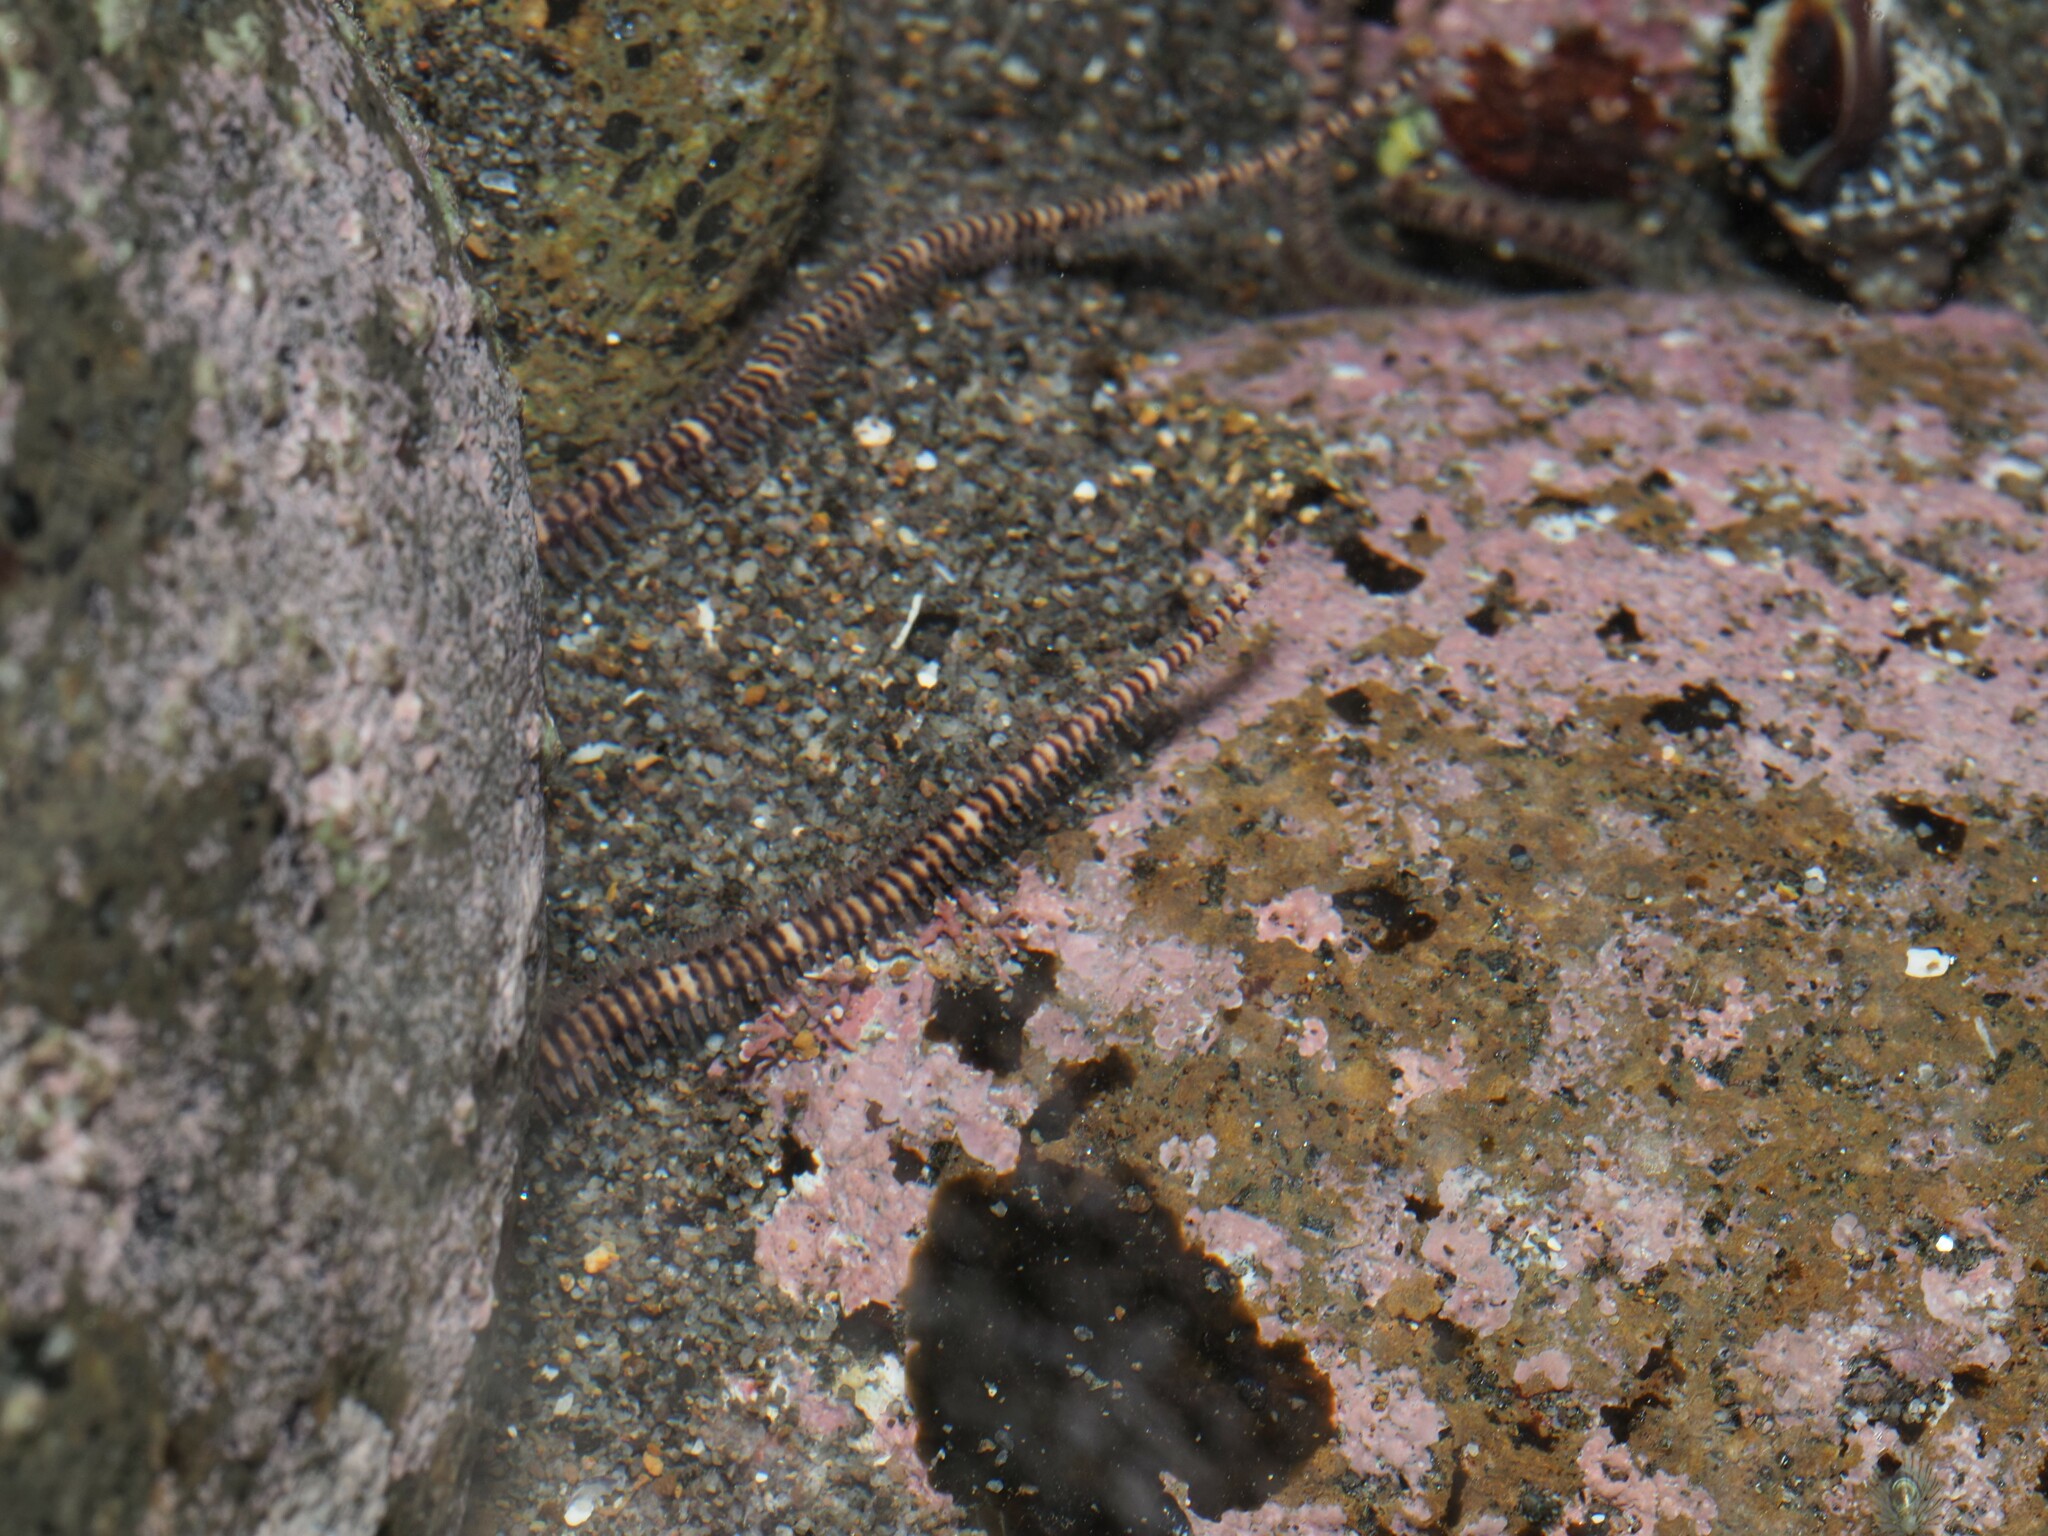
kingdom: Animalia
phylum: Echinodermata
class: Ophiuroidea
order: Amphilepidida
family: Ophionereididae
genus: Ophionereis
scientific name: Ophionereis fasciata
